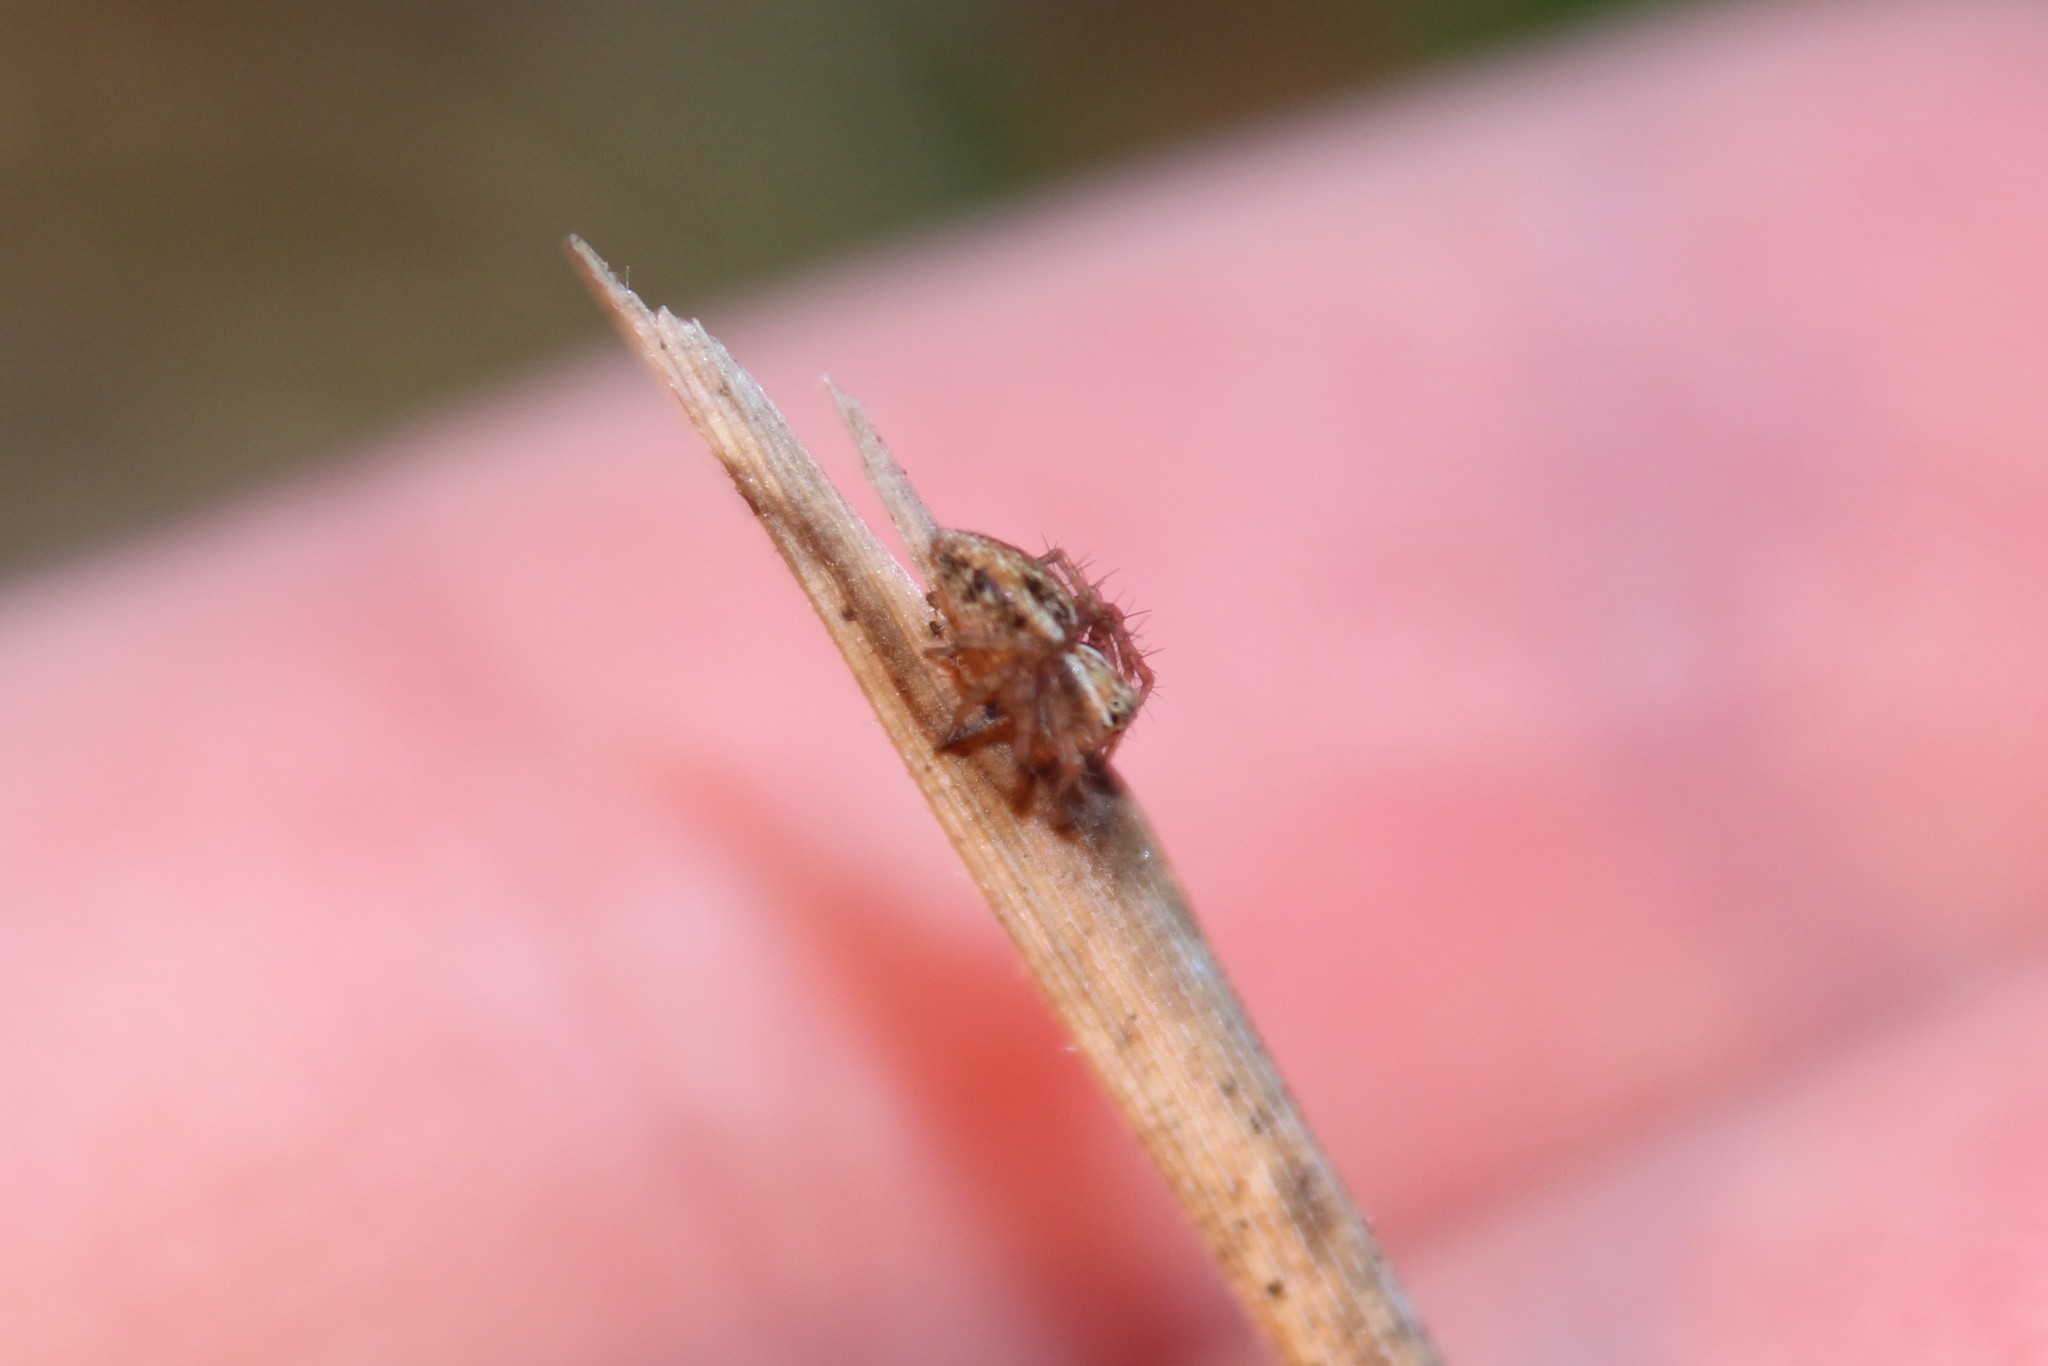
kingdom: Animalia
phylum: Arthropoda
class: Arachnida
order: Araneae
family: Oxyopidae
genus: Oxyopes
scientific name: Oxyopes lineatus
